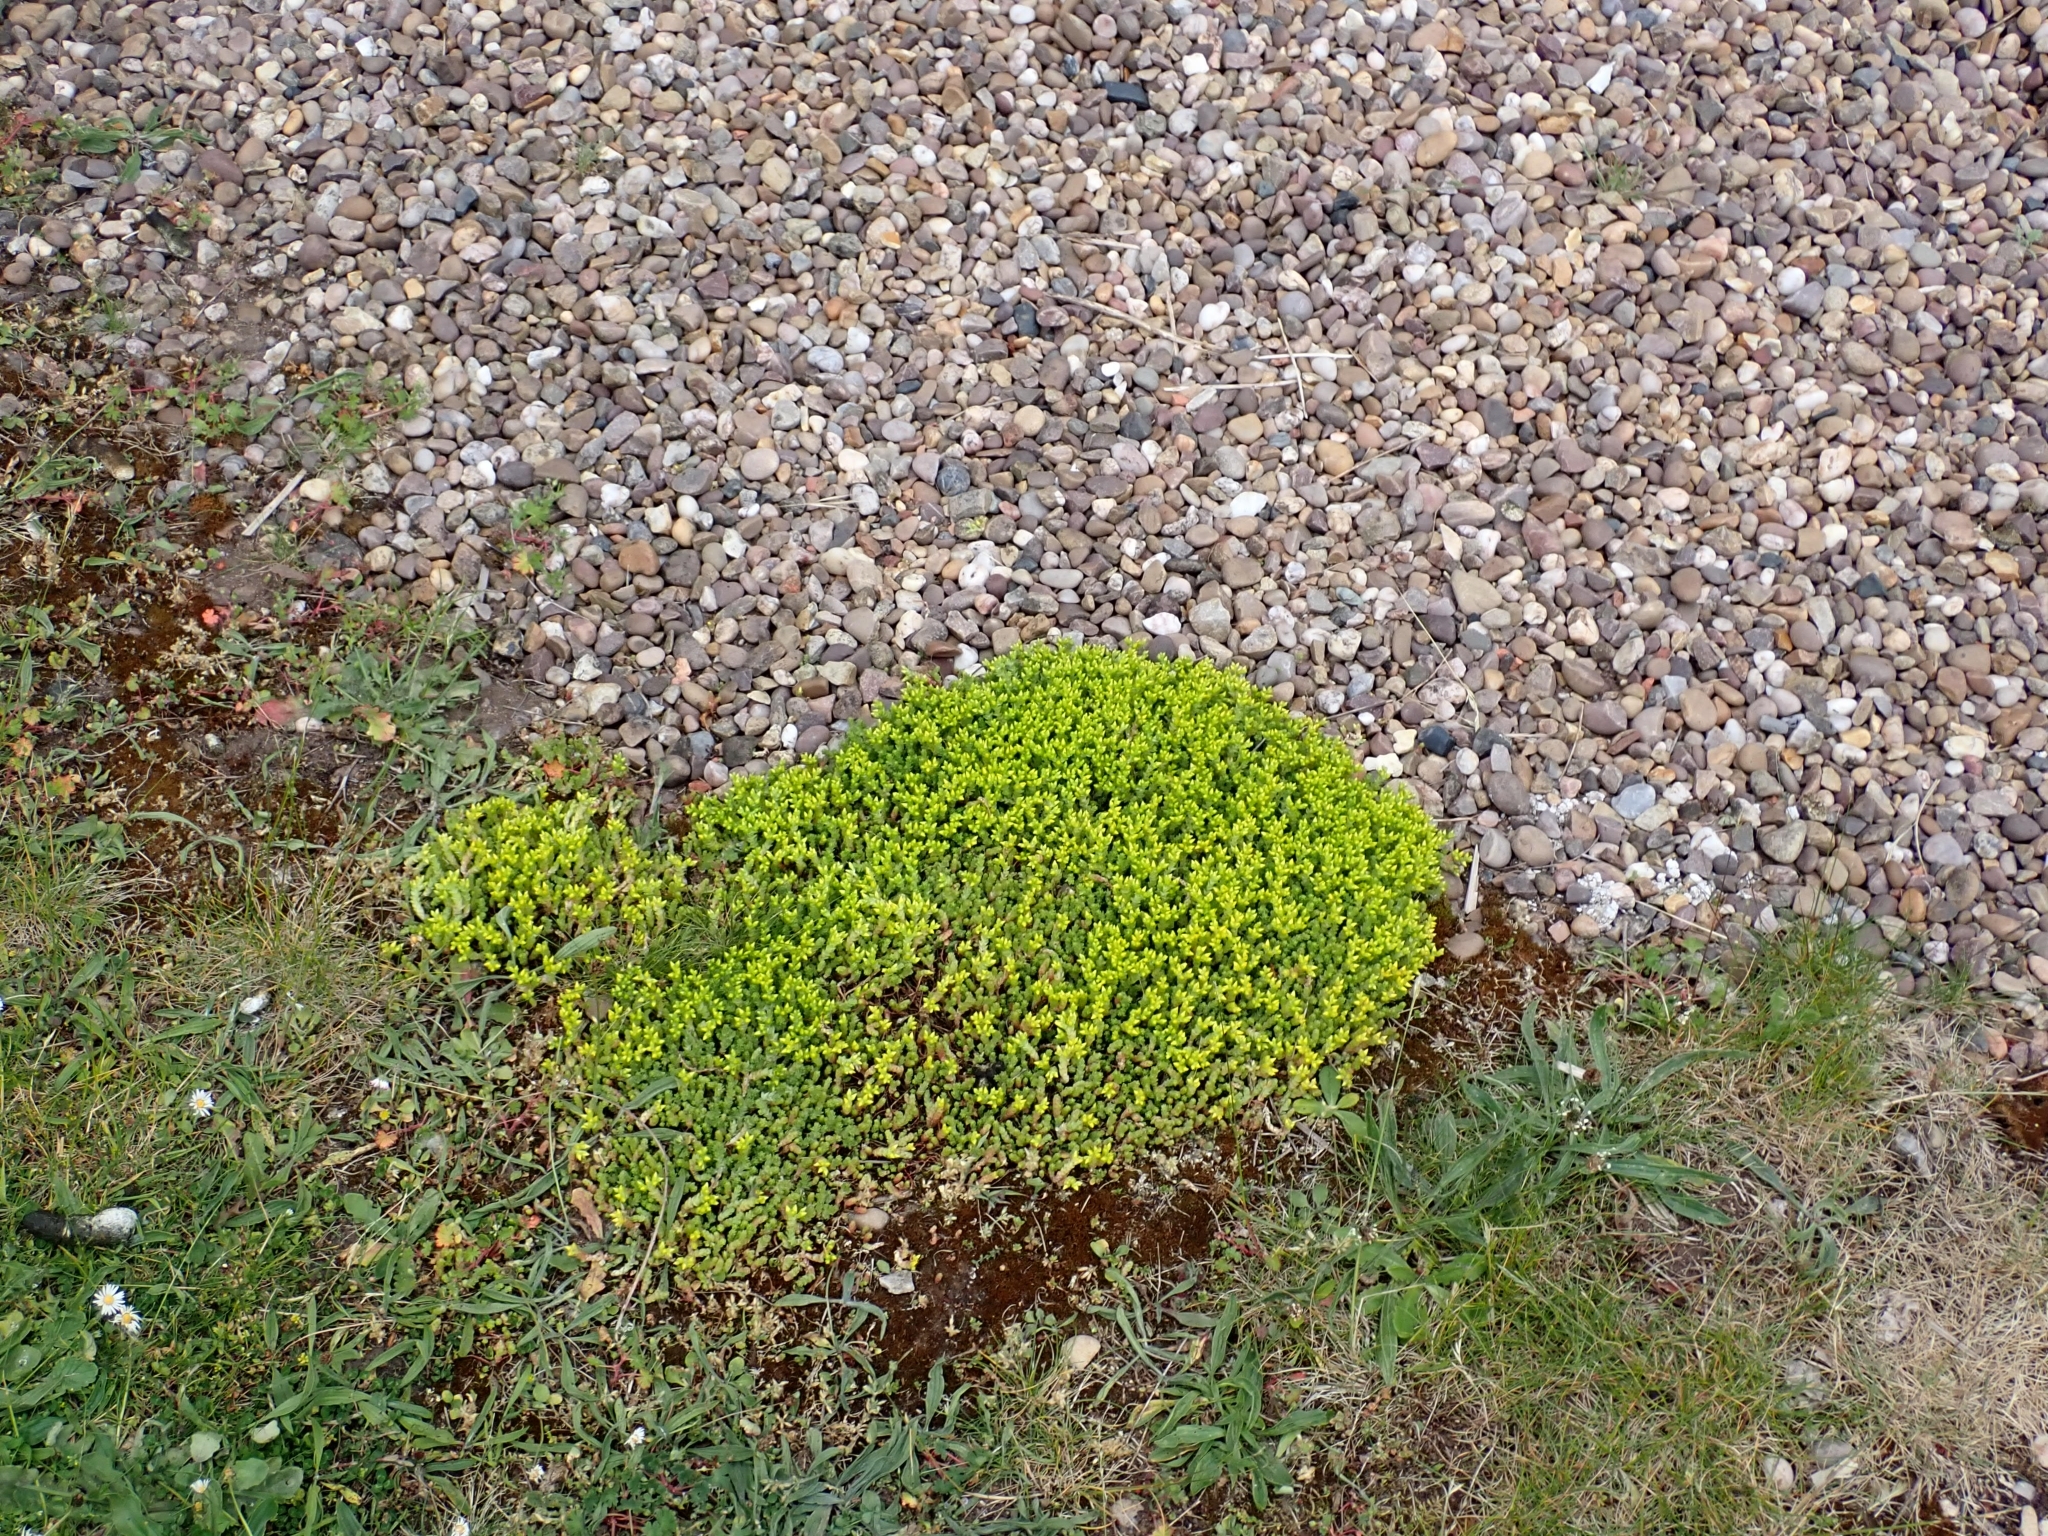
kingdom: Plantae
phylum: Tracheophyta
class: Magnoliopsida
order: Saxifragales
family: Crassulaceae
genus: Sedum
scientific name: Sedum acre
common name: Biting stonecrop
